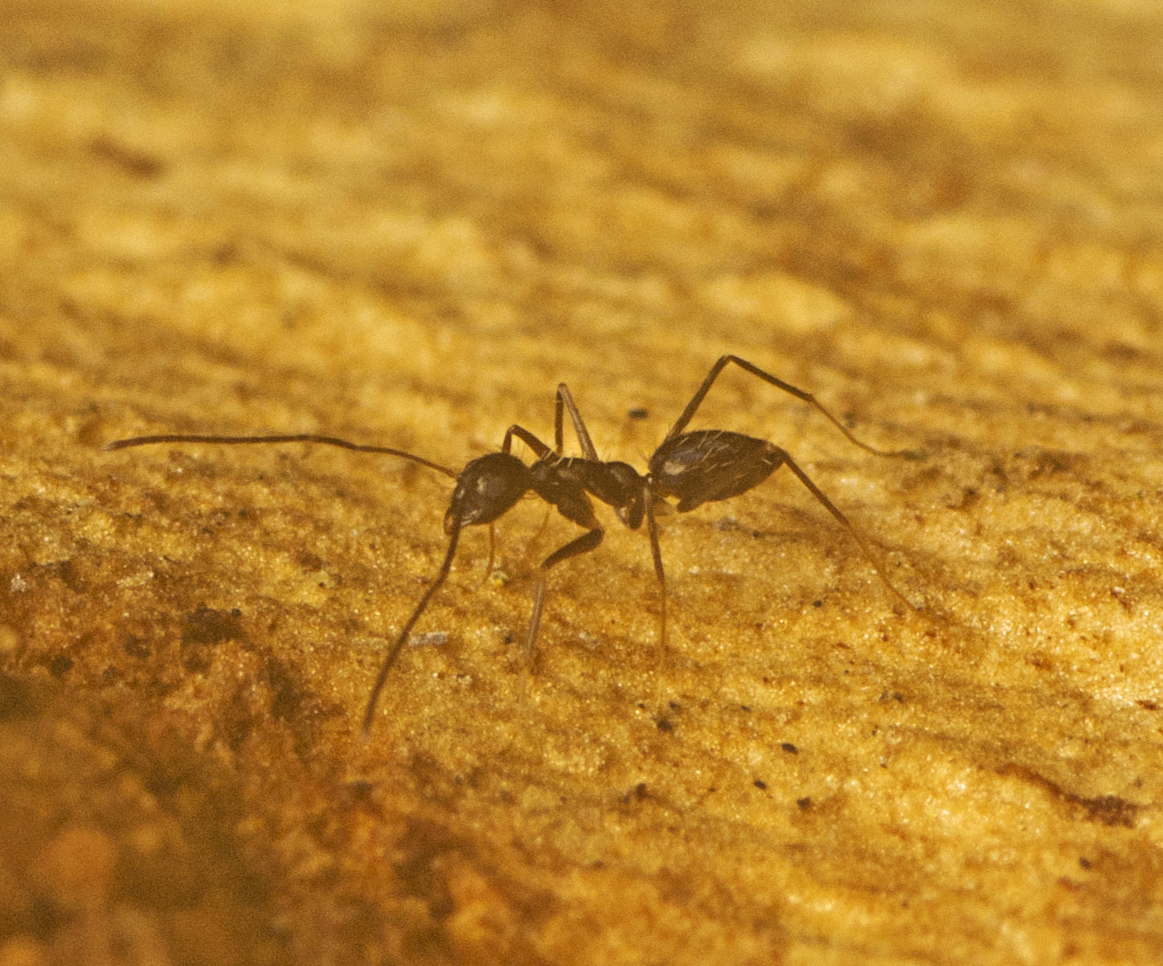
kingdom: Animalia
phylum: Arthropoda
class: Insecta
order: Hymenoptera
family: Formicidae
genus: Paratrechina
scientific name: Paratrechina longicornis
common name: Longhorned crazy ant
